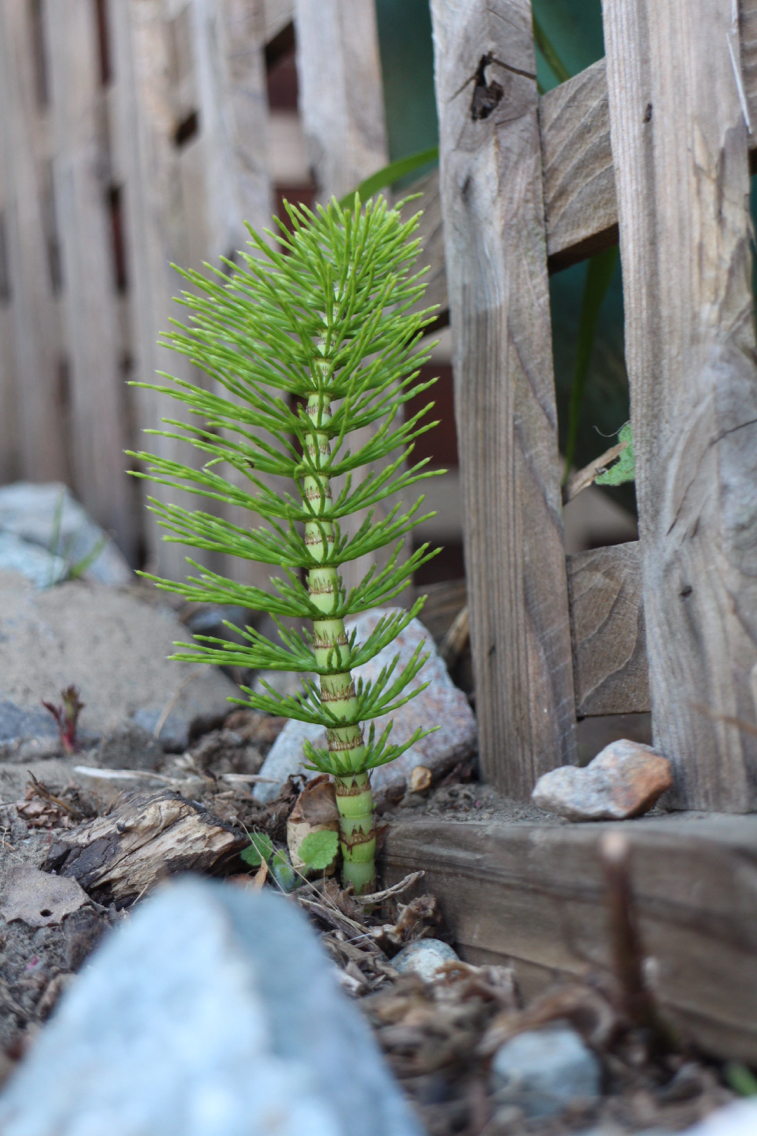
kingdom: Plantae
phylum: Tracheophyta
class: Polypodiopsida
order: Equisetales
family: Equisetaceae
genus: Equisetum
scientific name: Equisetum telmateia
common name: Great horsetail
